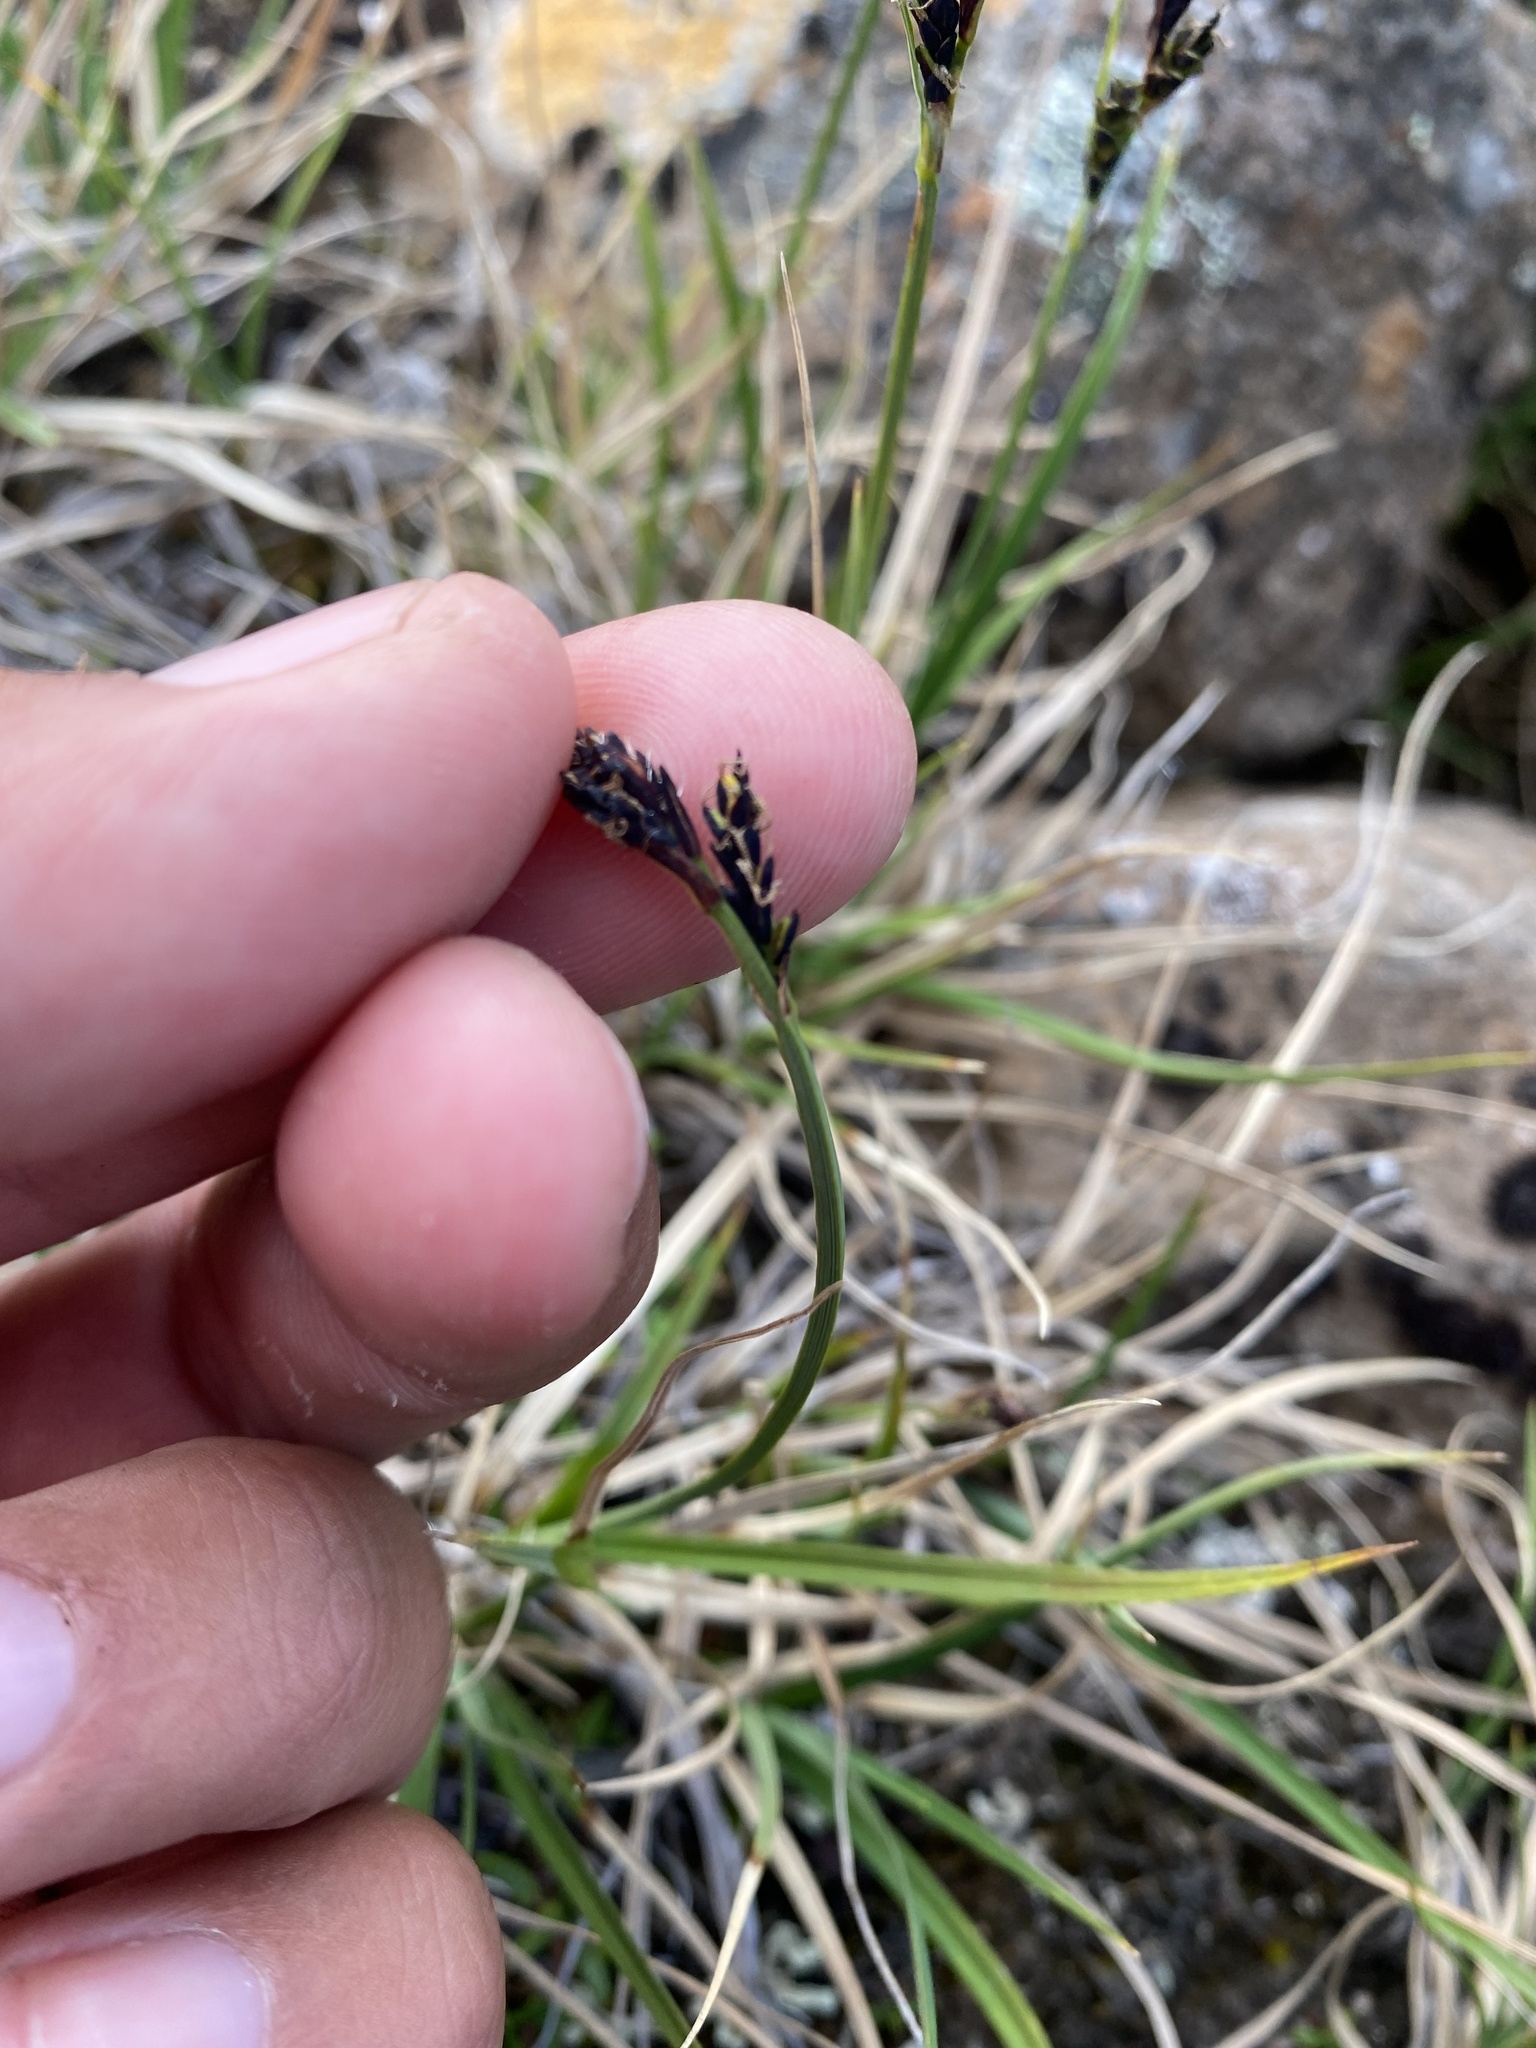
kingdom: Plantae
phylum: Tracheophyta
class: Liliopsida
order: Poales
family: Cyperaceae
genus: Carex
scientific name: Carex bigelowii
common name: Stiff sedge
